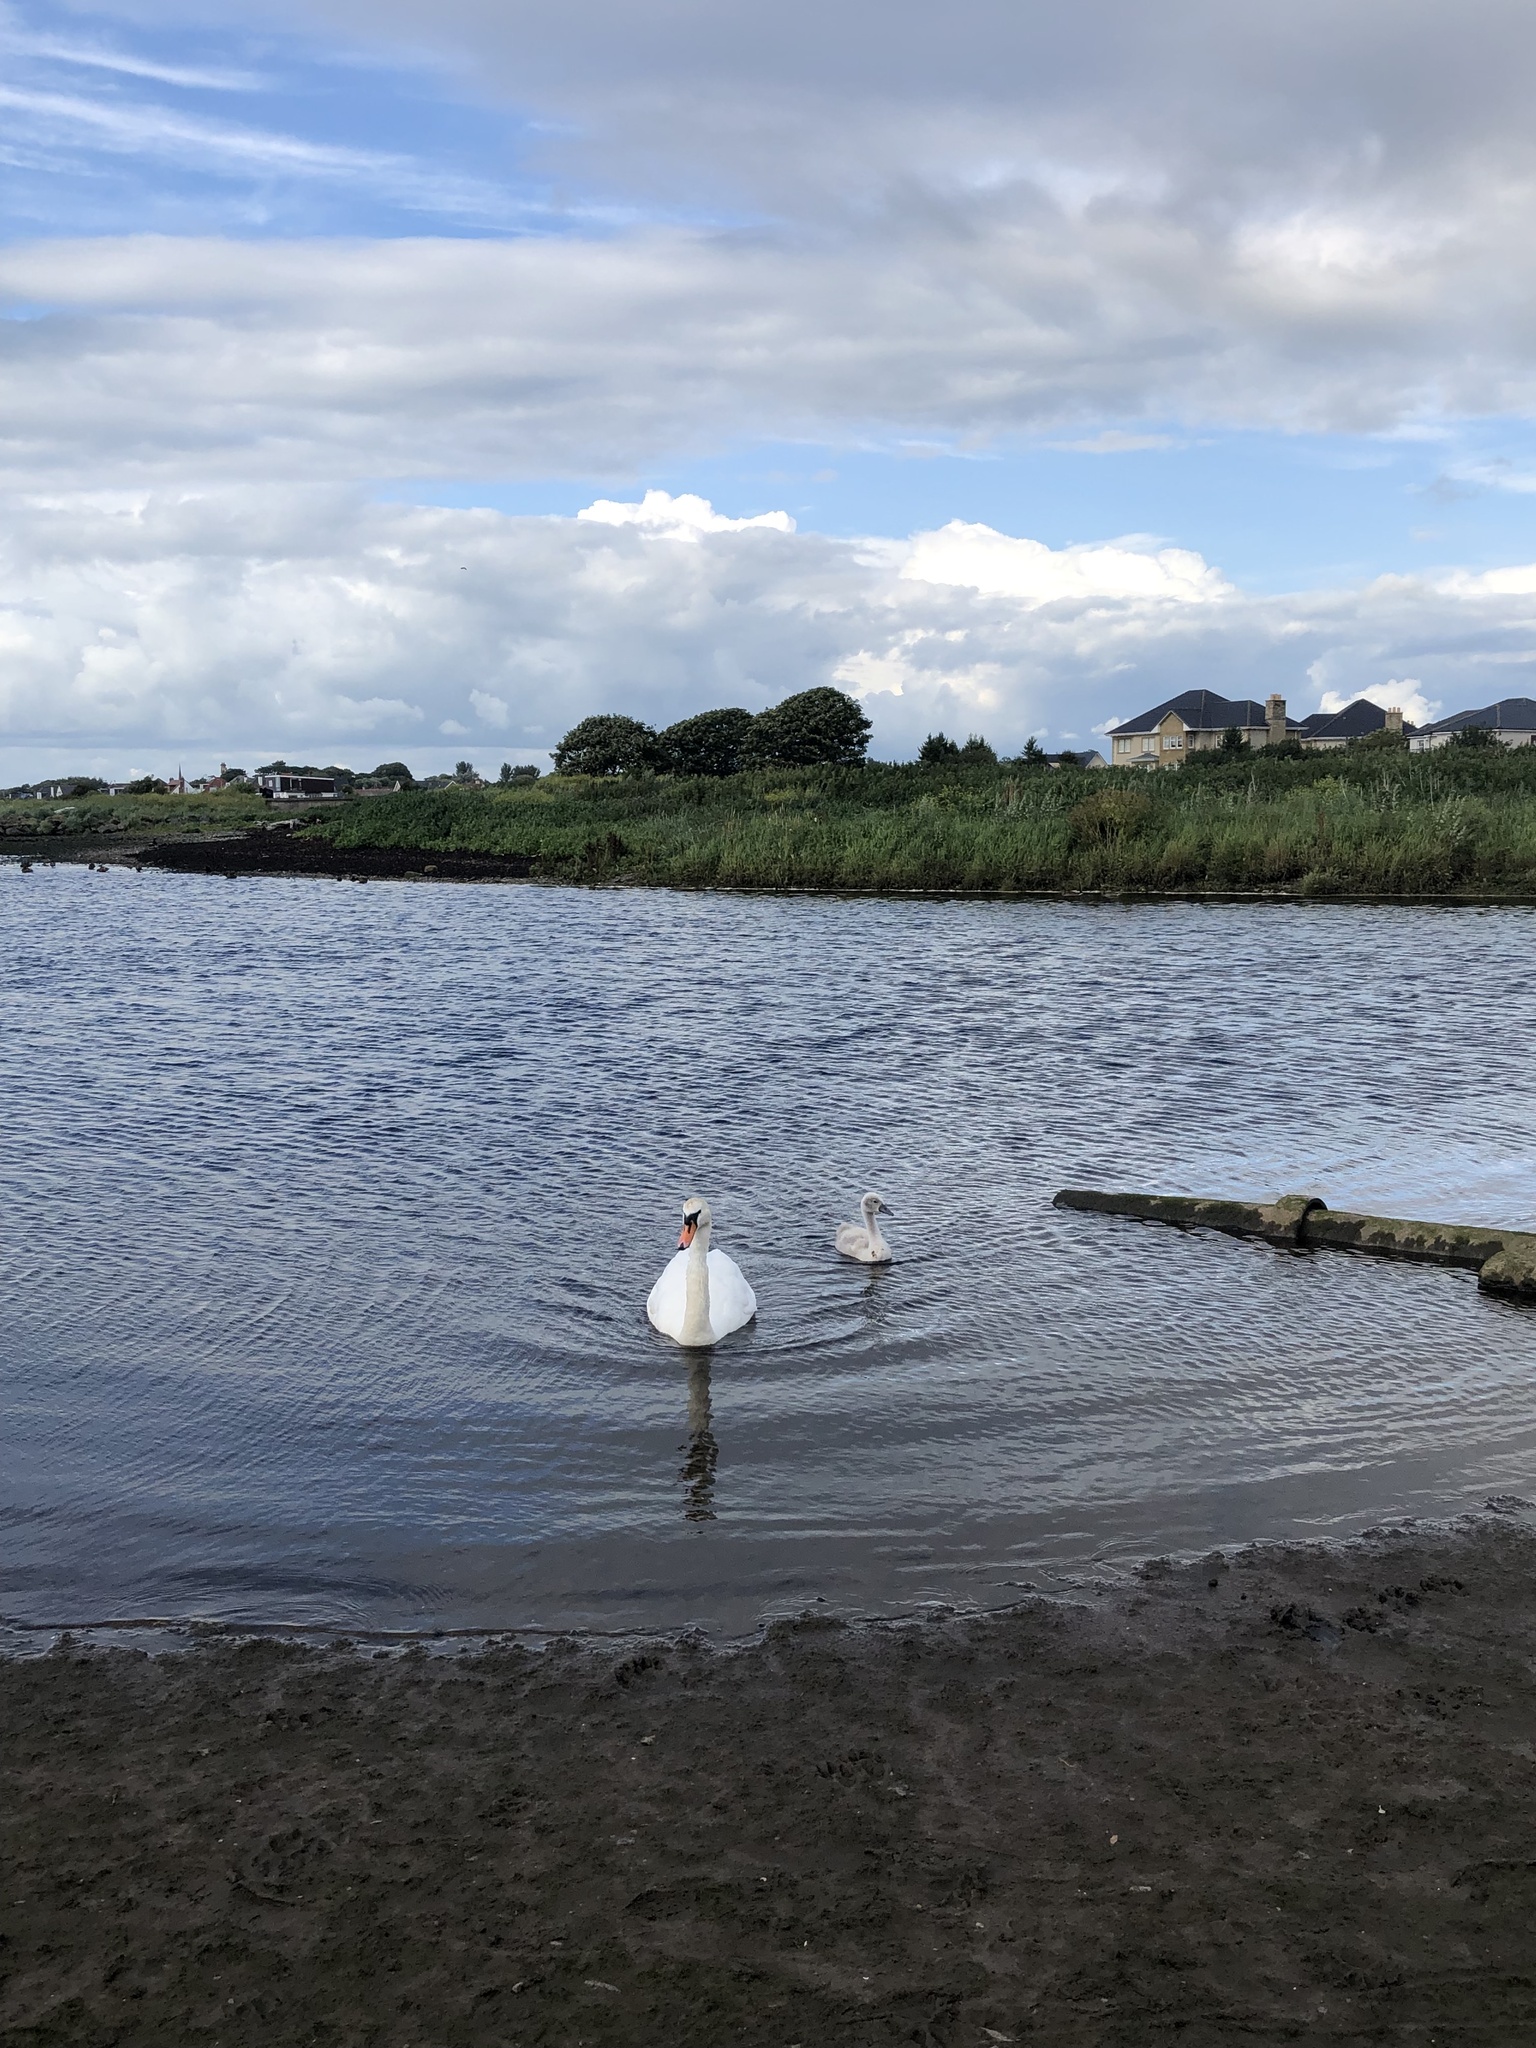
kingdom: Animalia
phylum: Chordata
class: Aves
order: Anseriformes
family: Anatidae
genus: Cygnus
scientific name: Cygnus olor
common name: Mute swan
